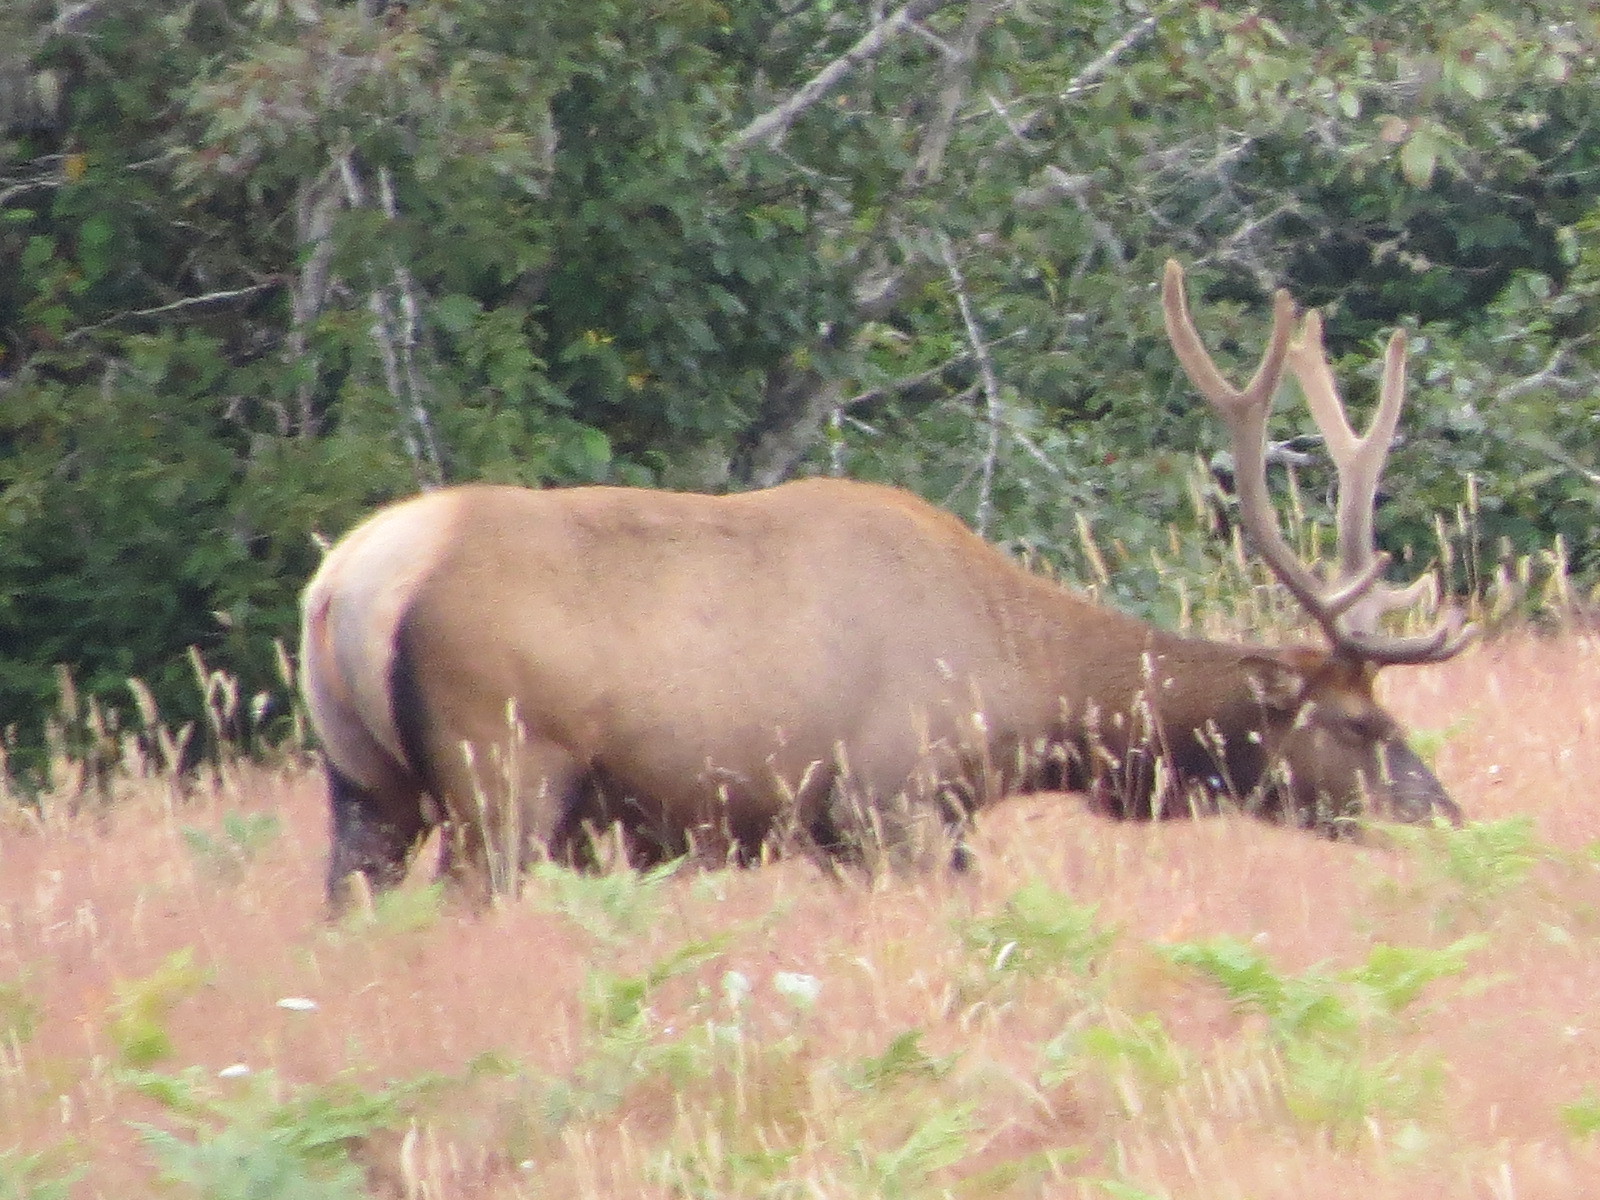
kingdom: Animalia
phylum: Chordata
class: Mammalia
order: Artiodactyla
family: Cervidae
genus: Cervus
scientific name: Cervus elaphus
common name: Red deer
